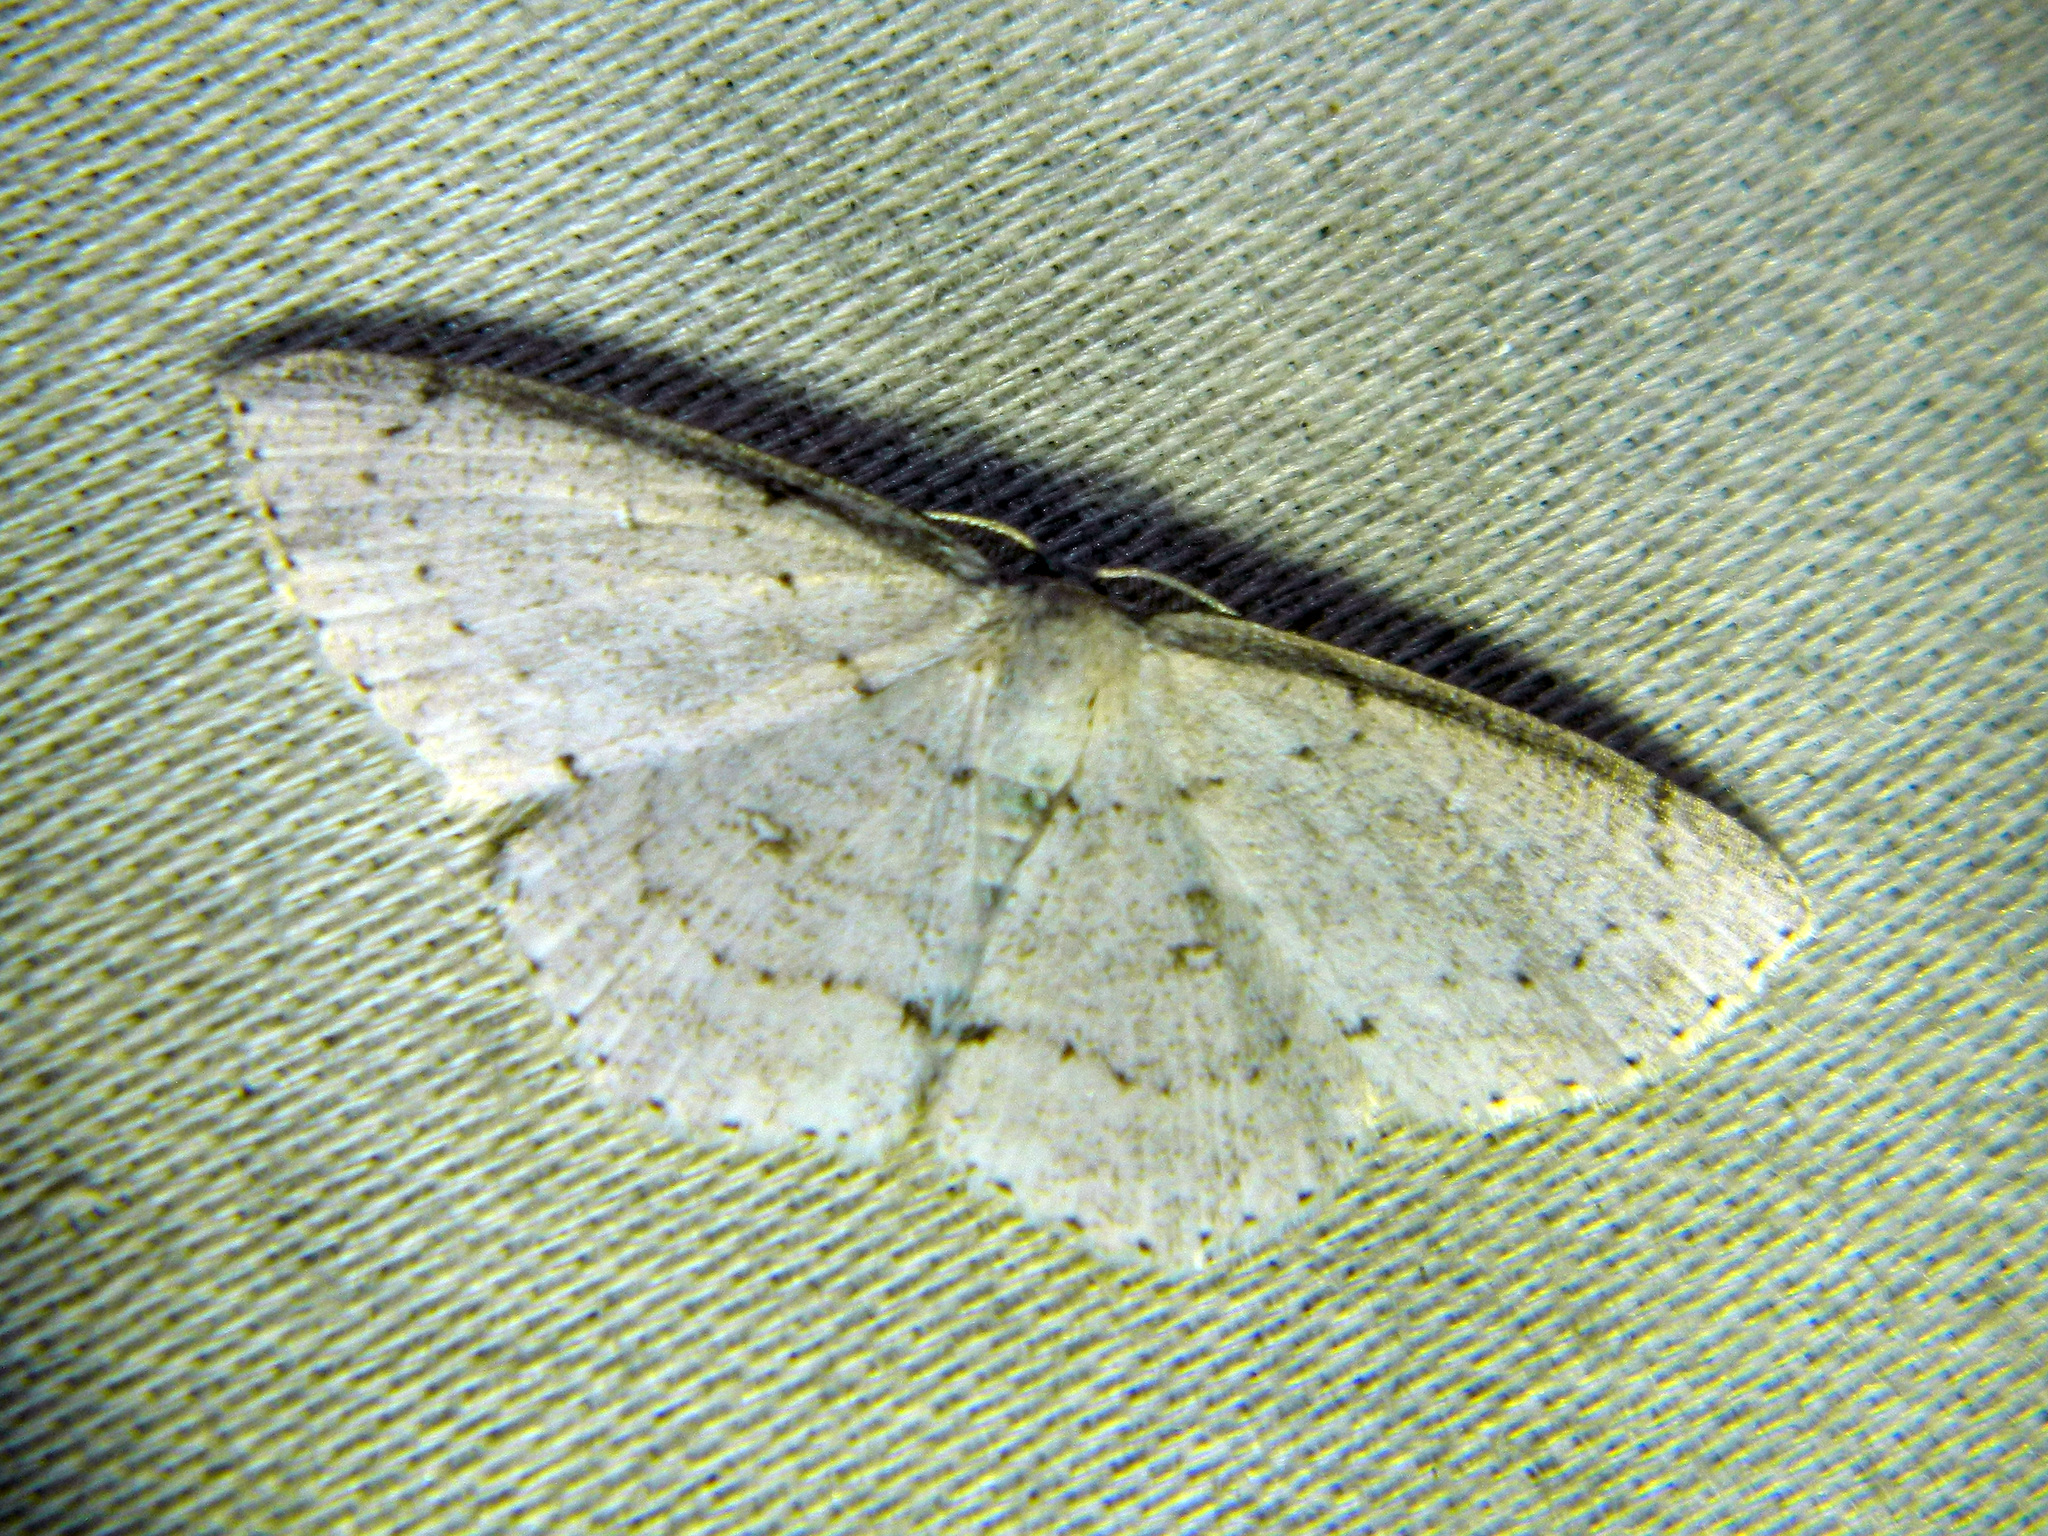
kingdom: Animalia
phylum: Arthropoda
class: Insecta
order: Lepidoptera
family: Geometridae
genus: Cyclophora
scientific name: Cyclophora pendulinaria
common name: Sweet fern geometer
